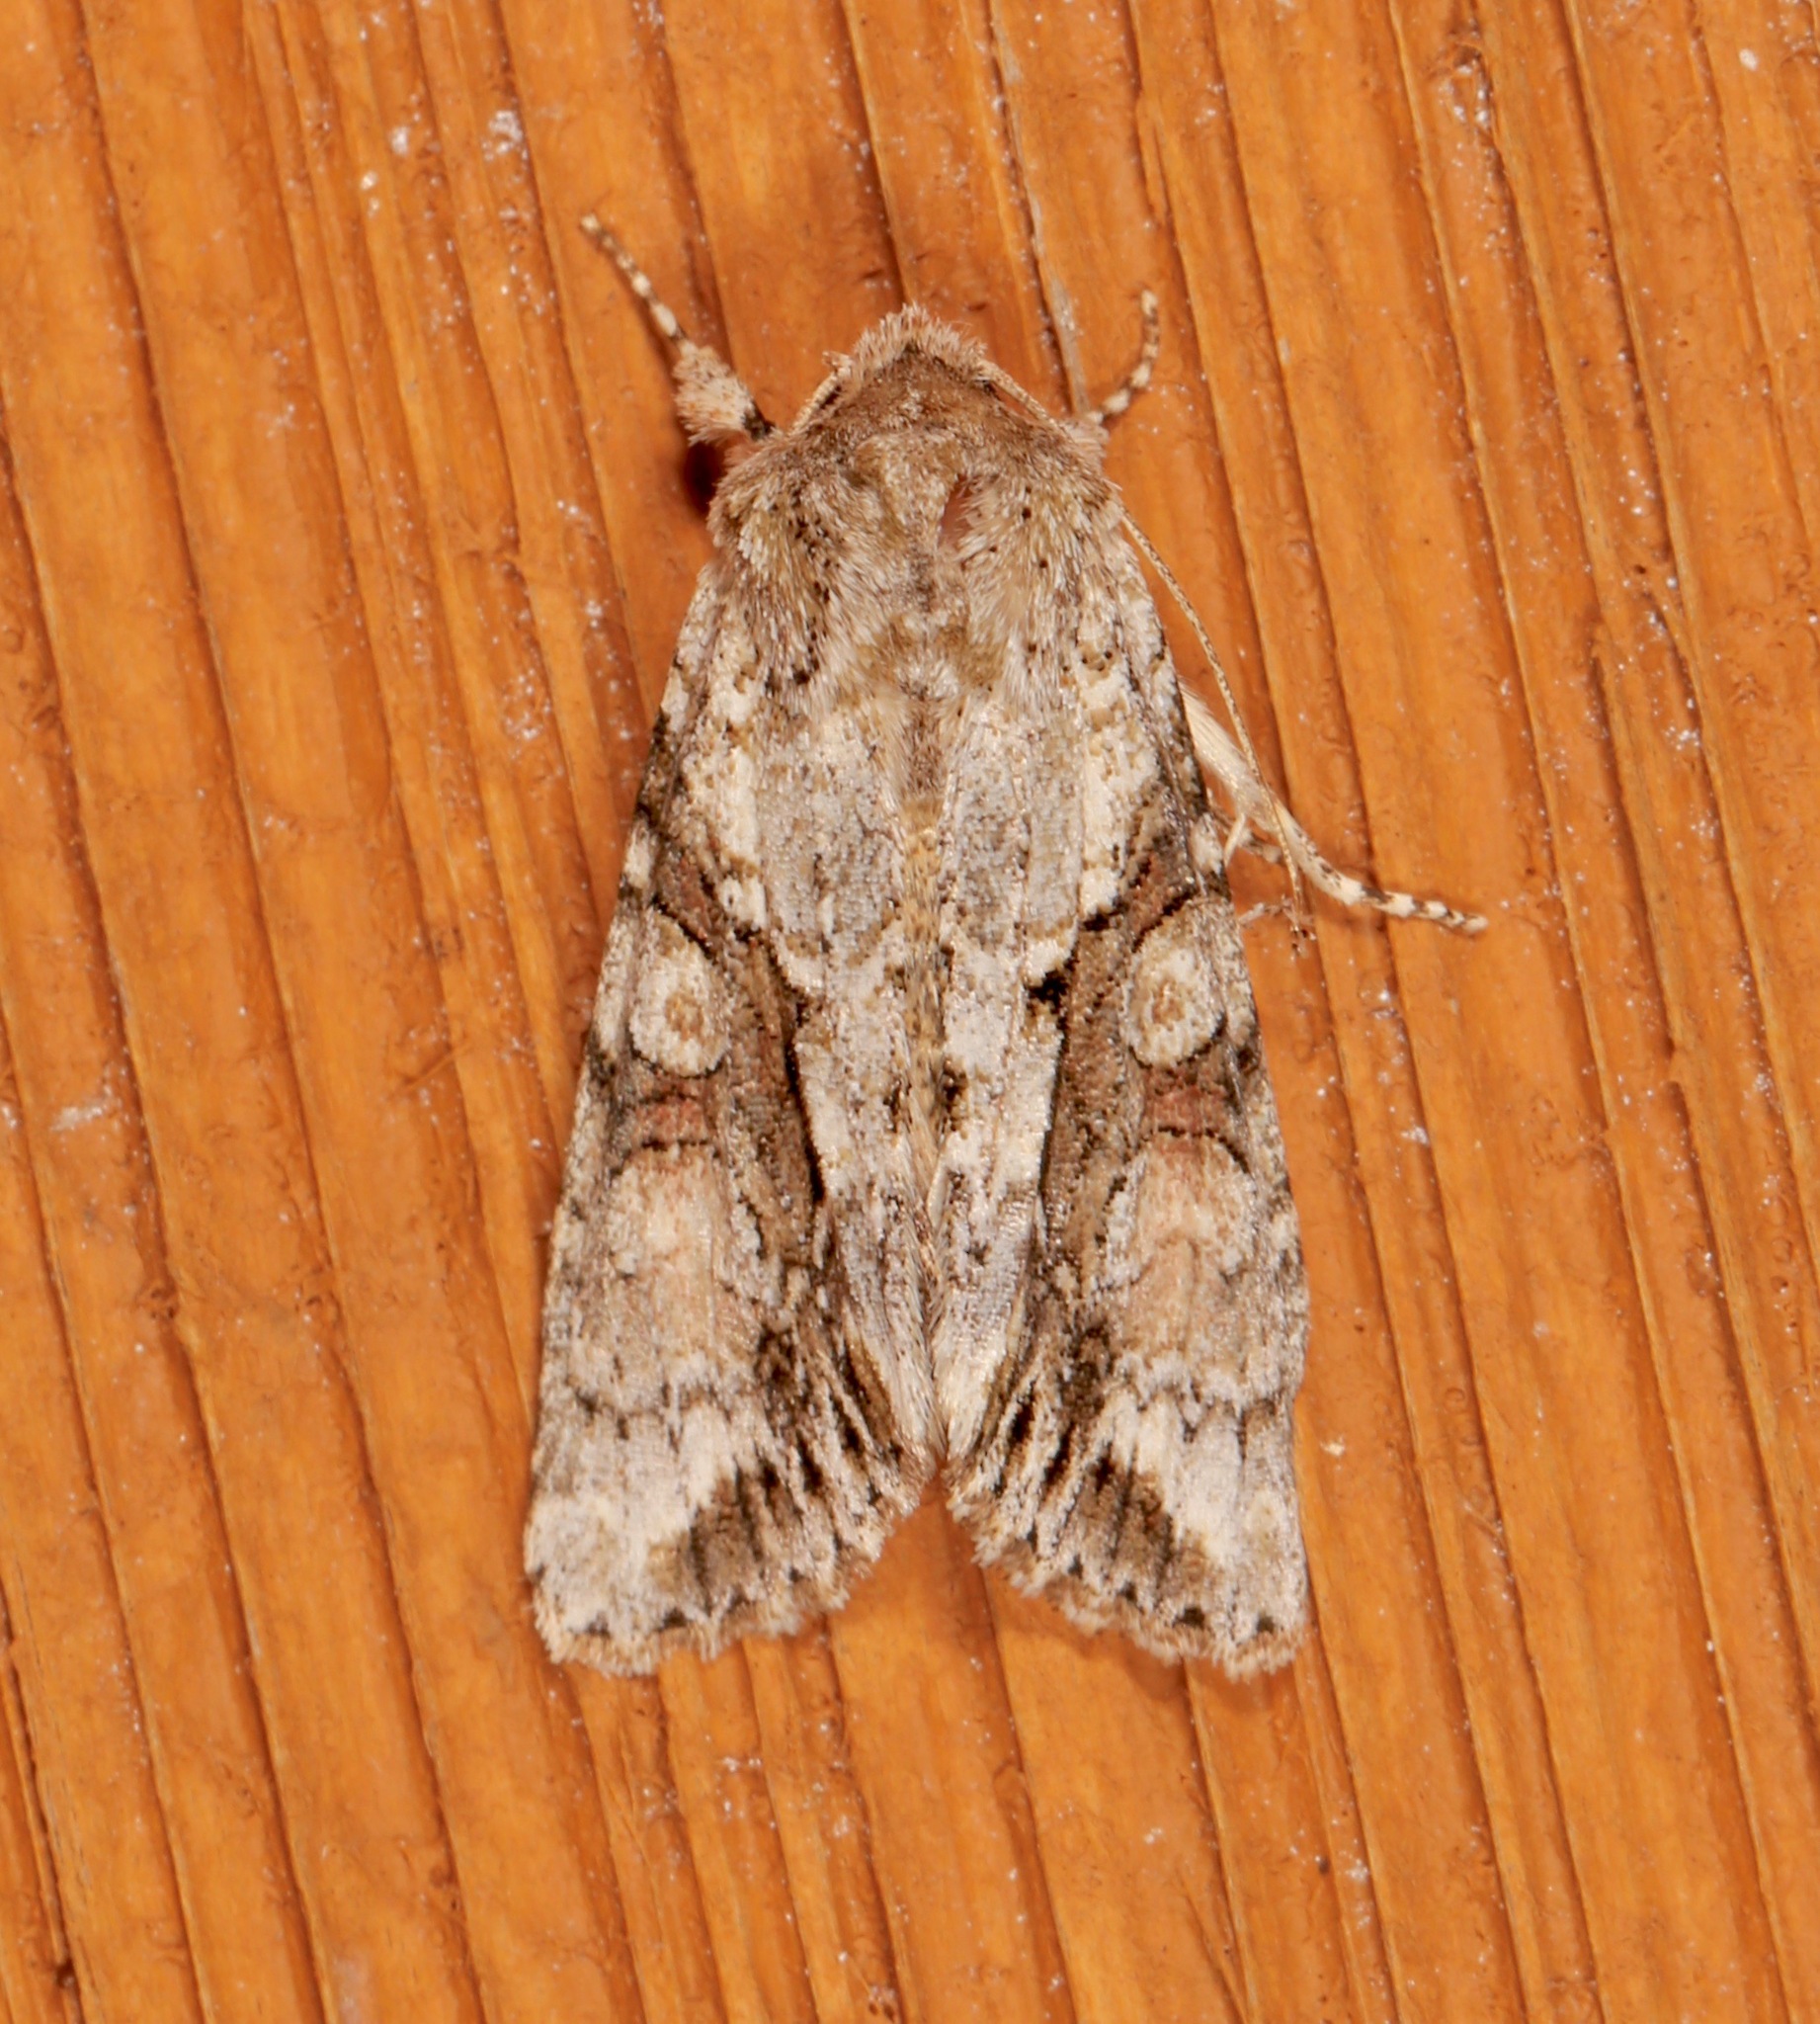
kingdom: Animalia
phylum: Arthropoda
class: Insecta
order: Lepidoptera
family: Noctuidae
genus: Achatia
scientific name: Achatia distincta
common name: Distinct quaker
